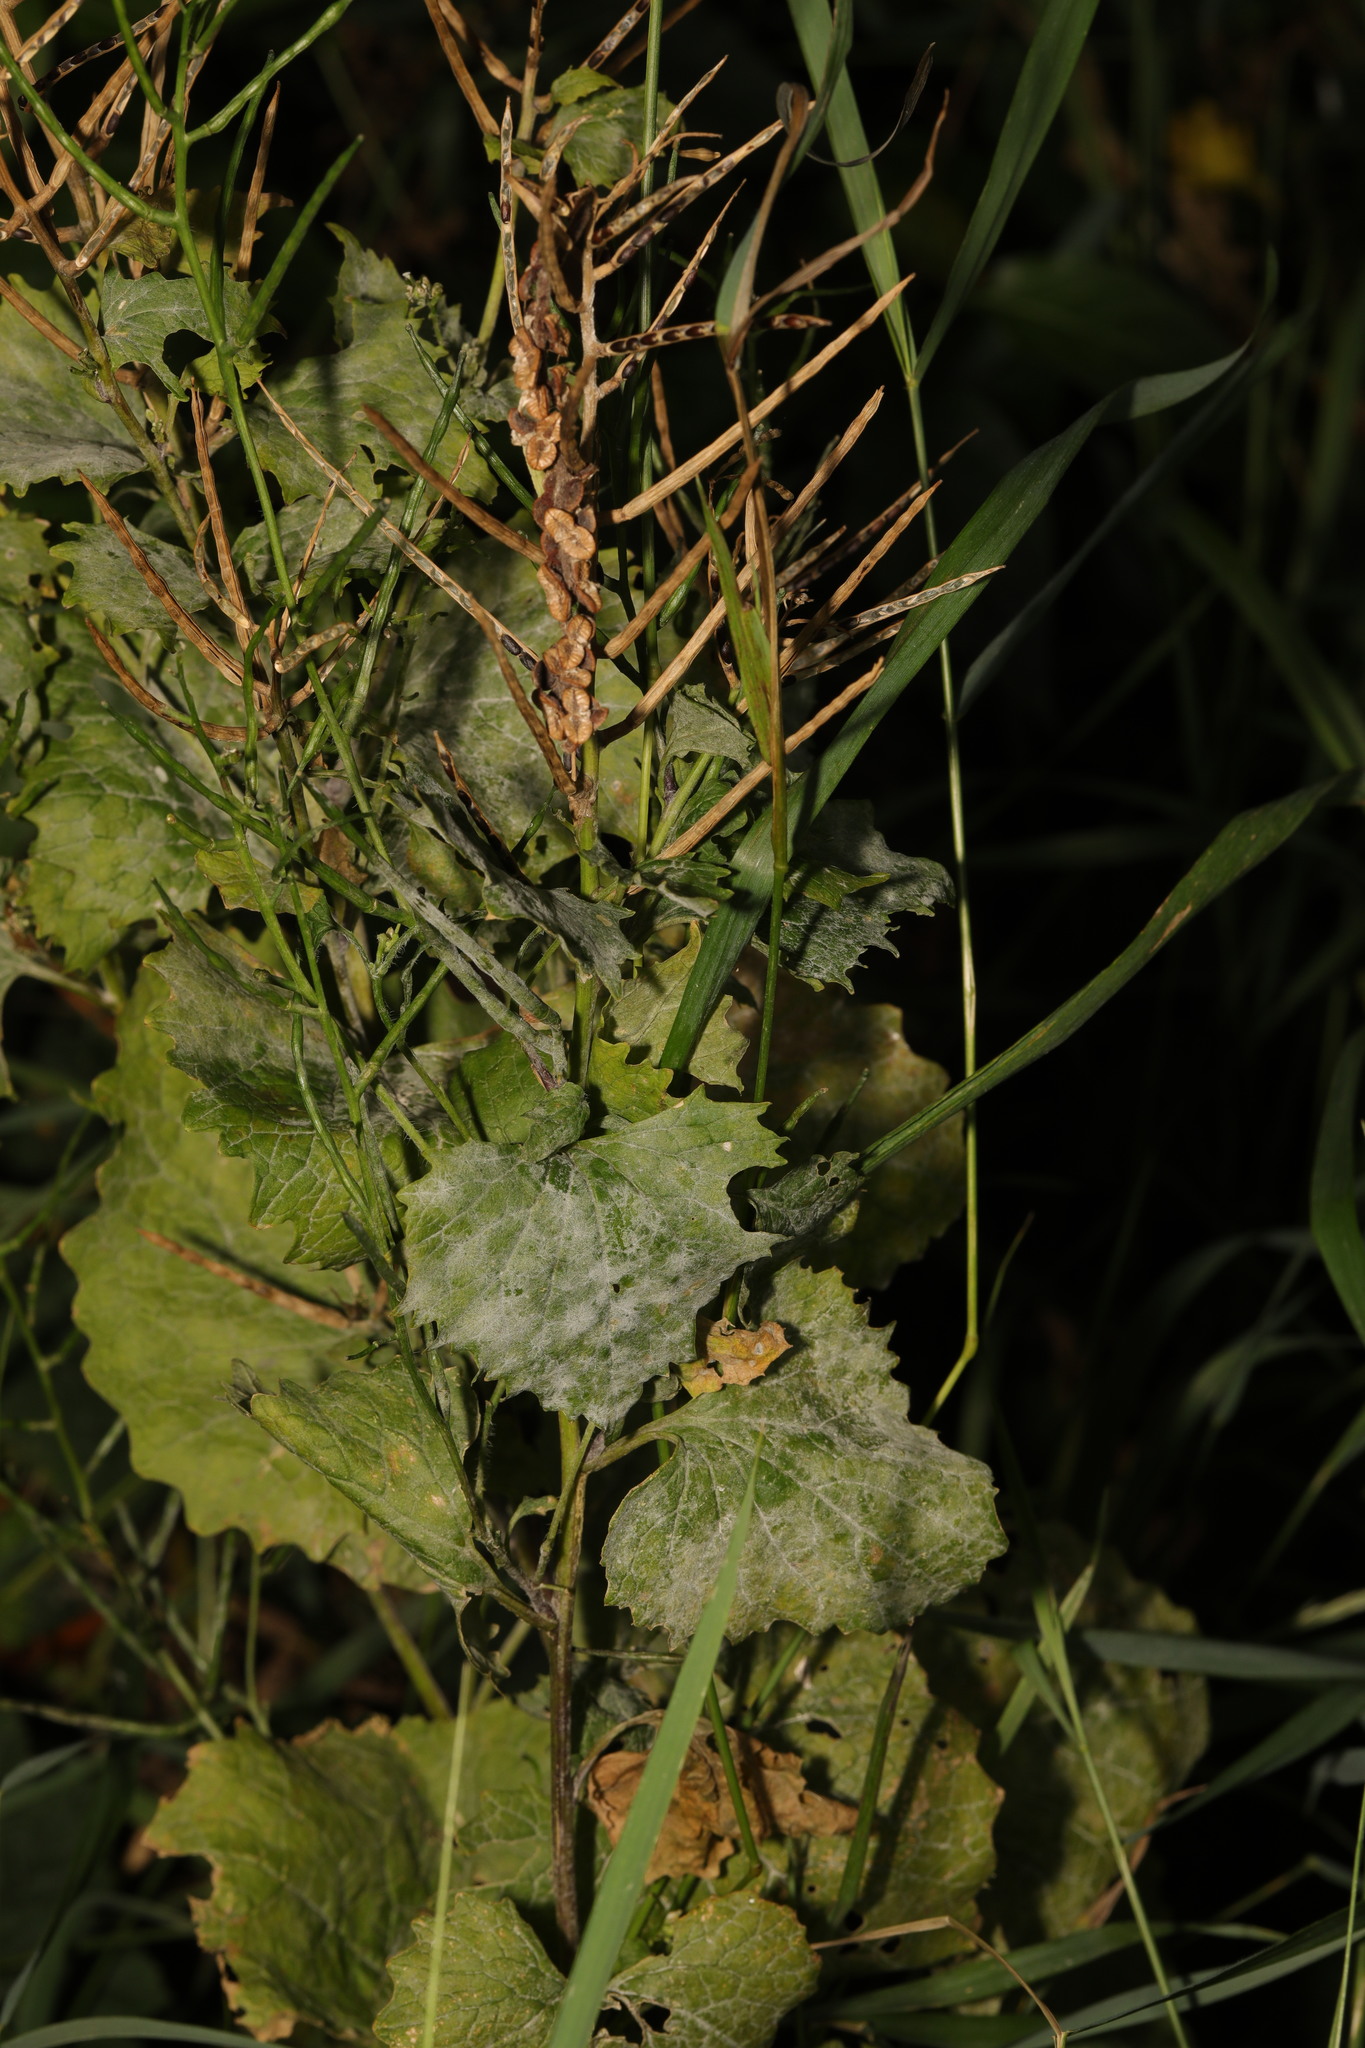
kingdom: Plantae
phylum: Tracheophyta
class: Magnoliopsida
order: Brassicales
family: Brassicaceae
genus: Alliaria
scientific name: Alliaria petiolata
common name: Garlic mustard
